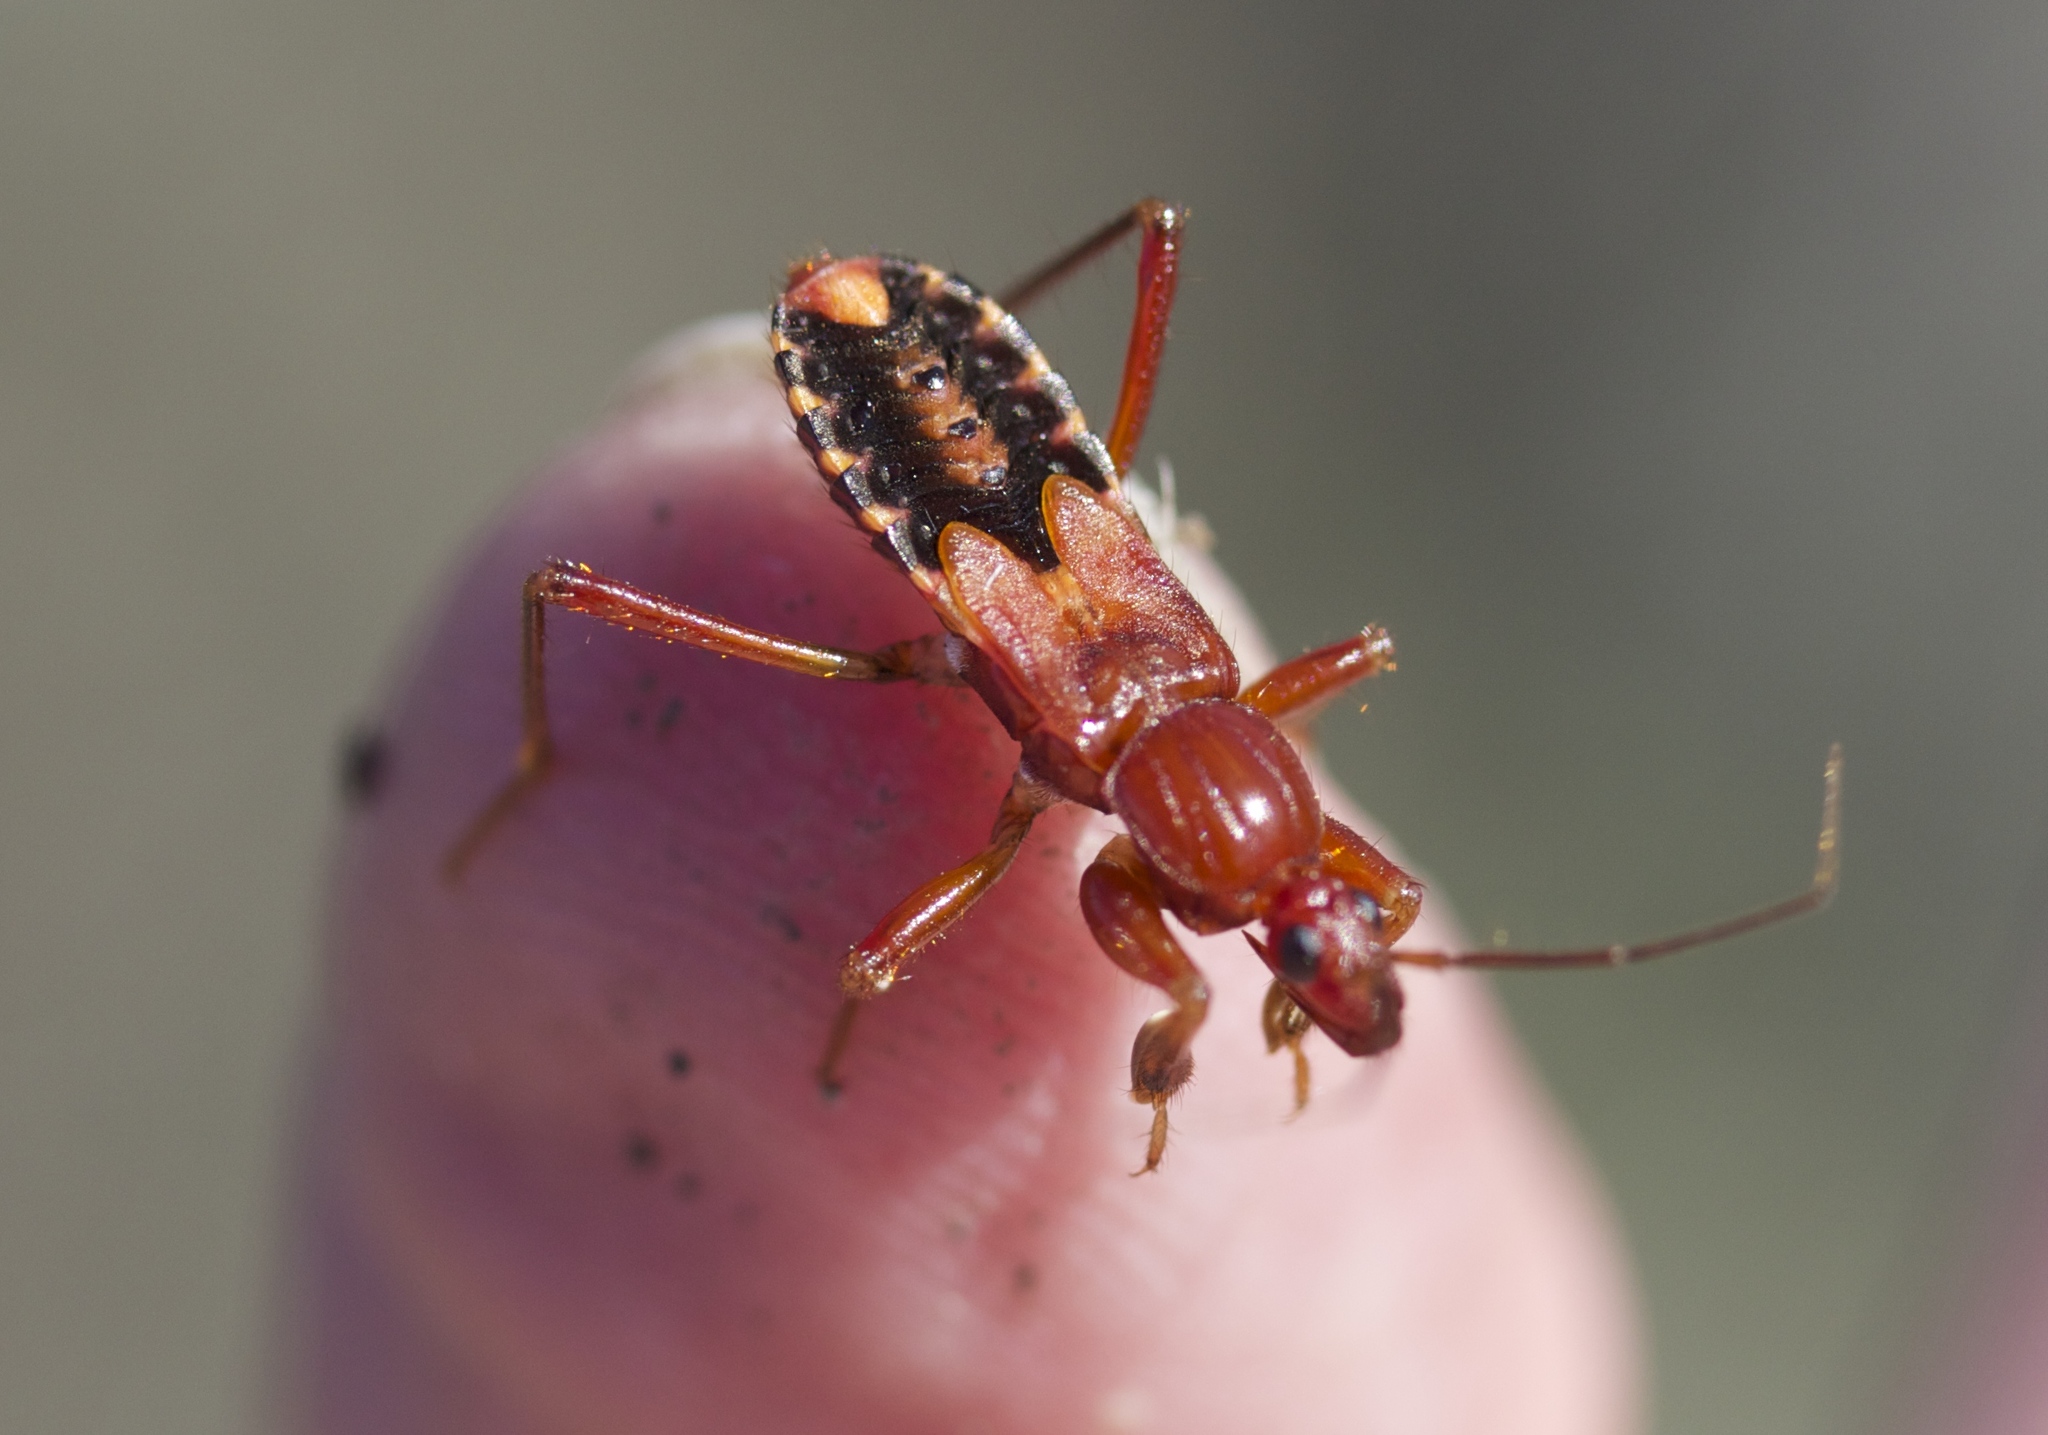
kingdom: Animalia
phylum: Arthropoda
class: Insecta
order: Hemiptera
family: Reduviidae
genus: Rasahus
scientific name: Rasahus thoracicus
